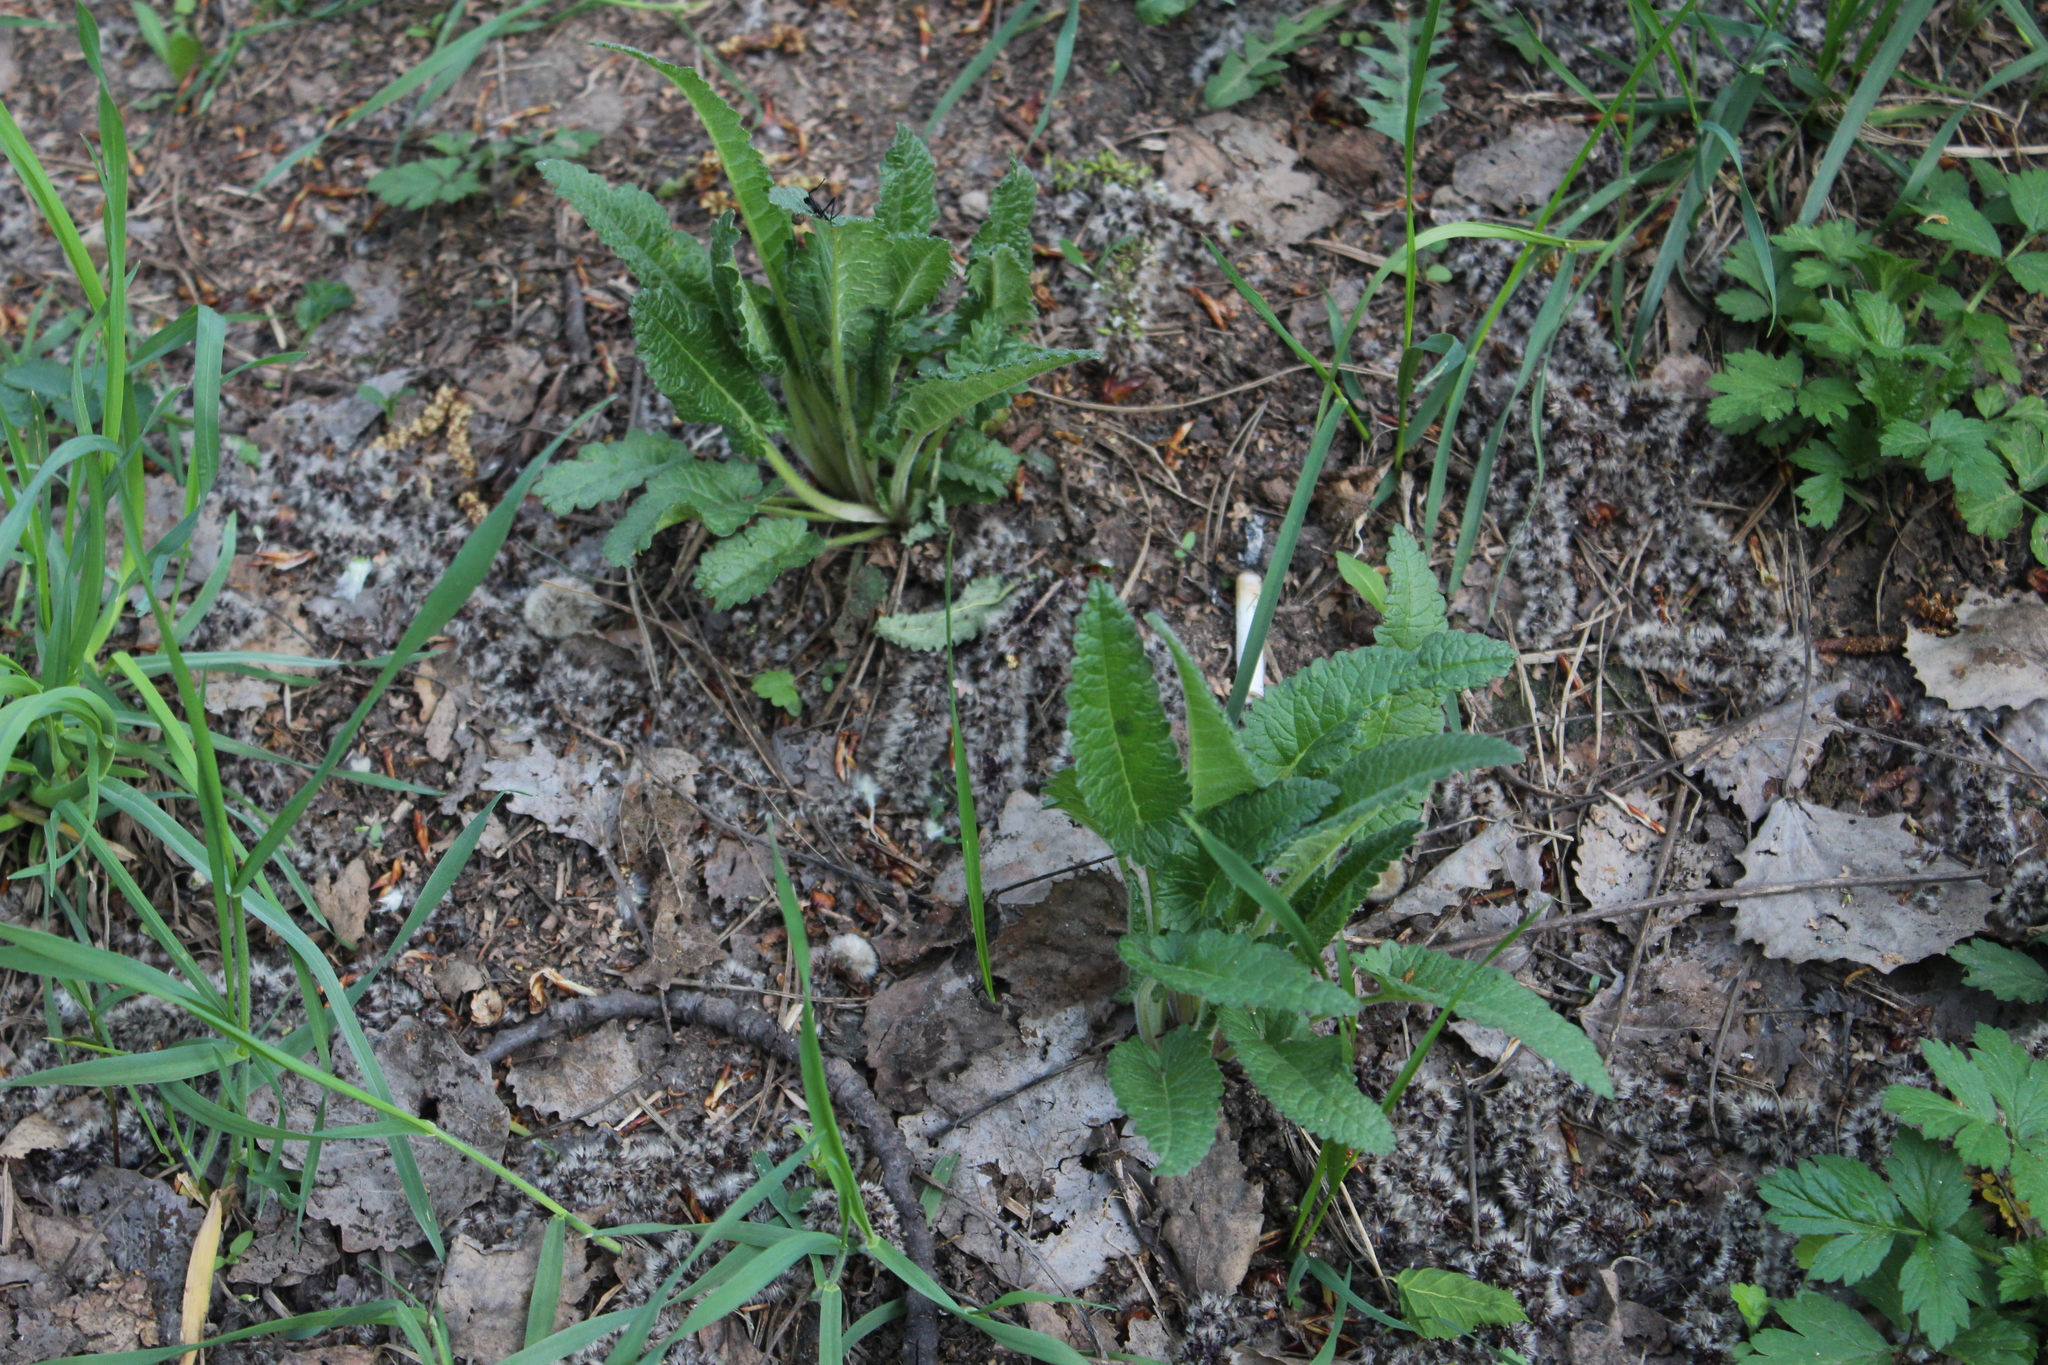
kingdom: Plantae
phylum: Tracheophyta
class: Magnoliopsida
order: Lamiales
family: Lamiaceae
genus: Betonica
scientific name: Betonica officinalis
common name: Bishop's-wort
